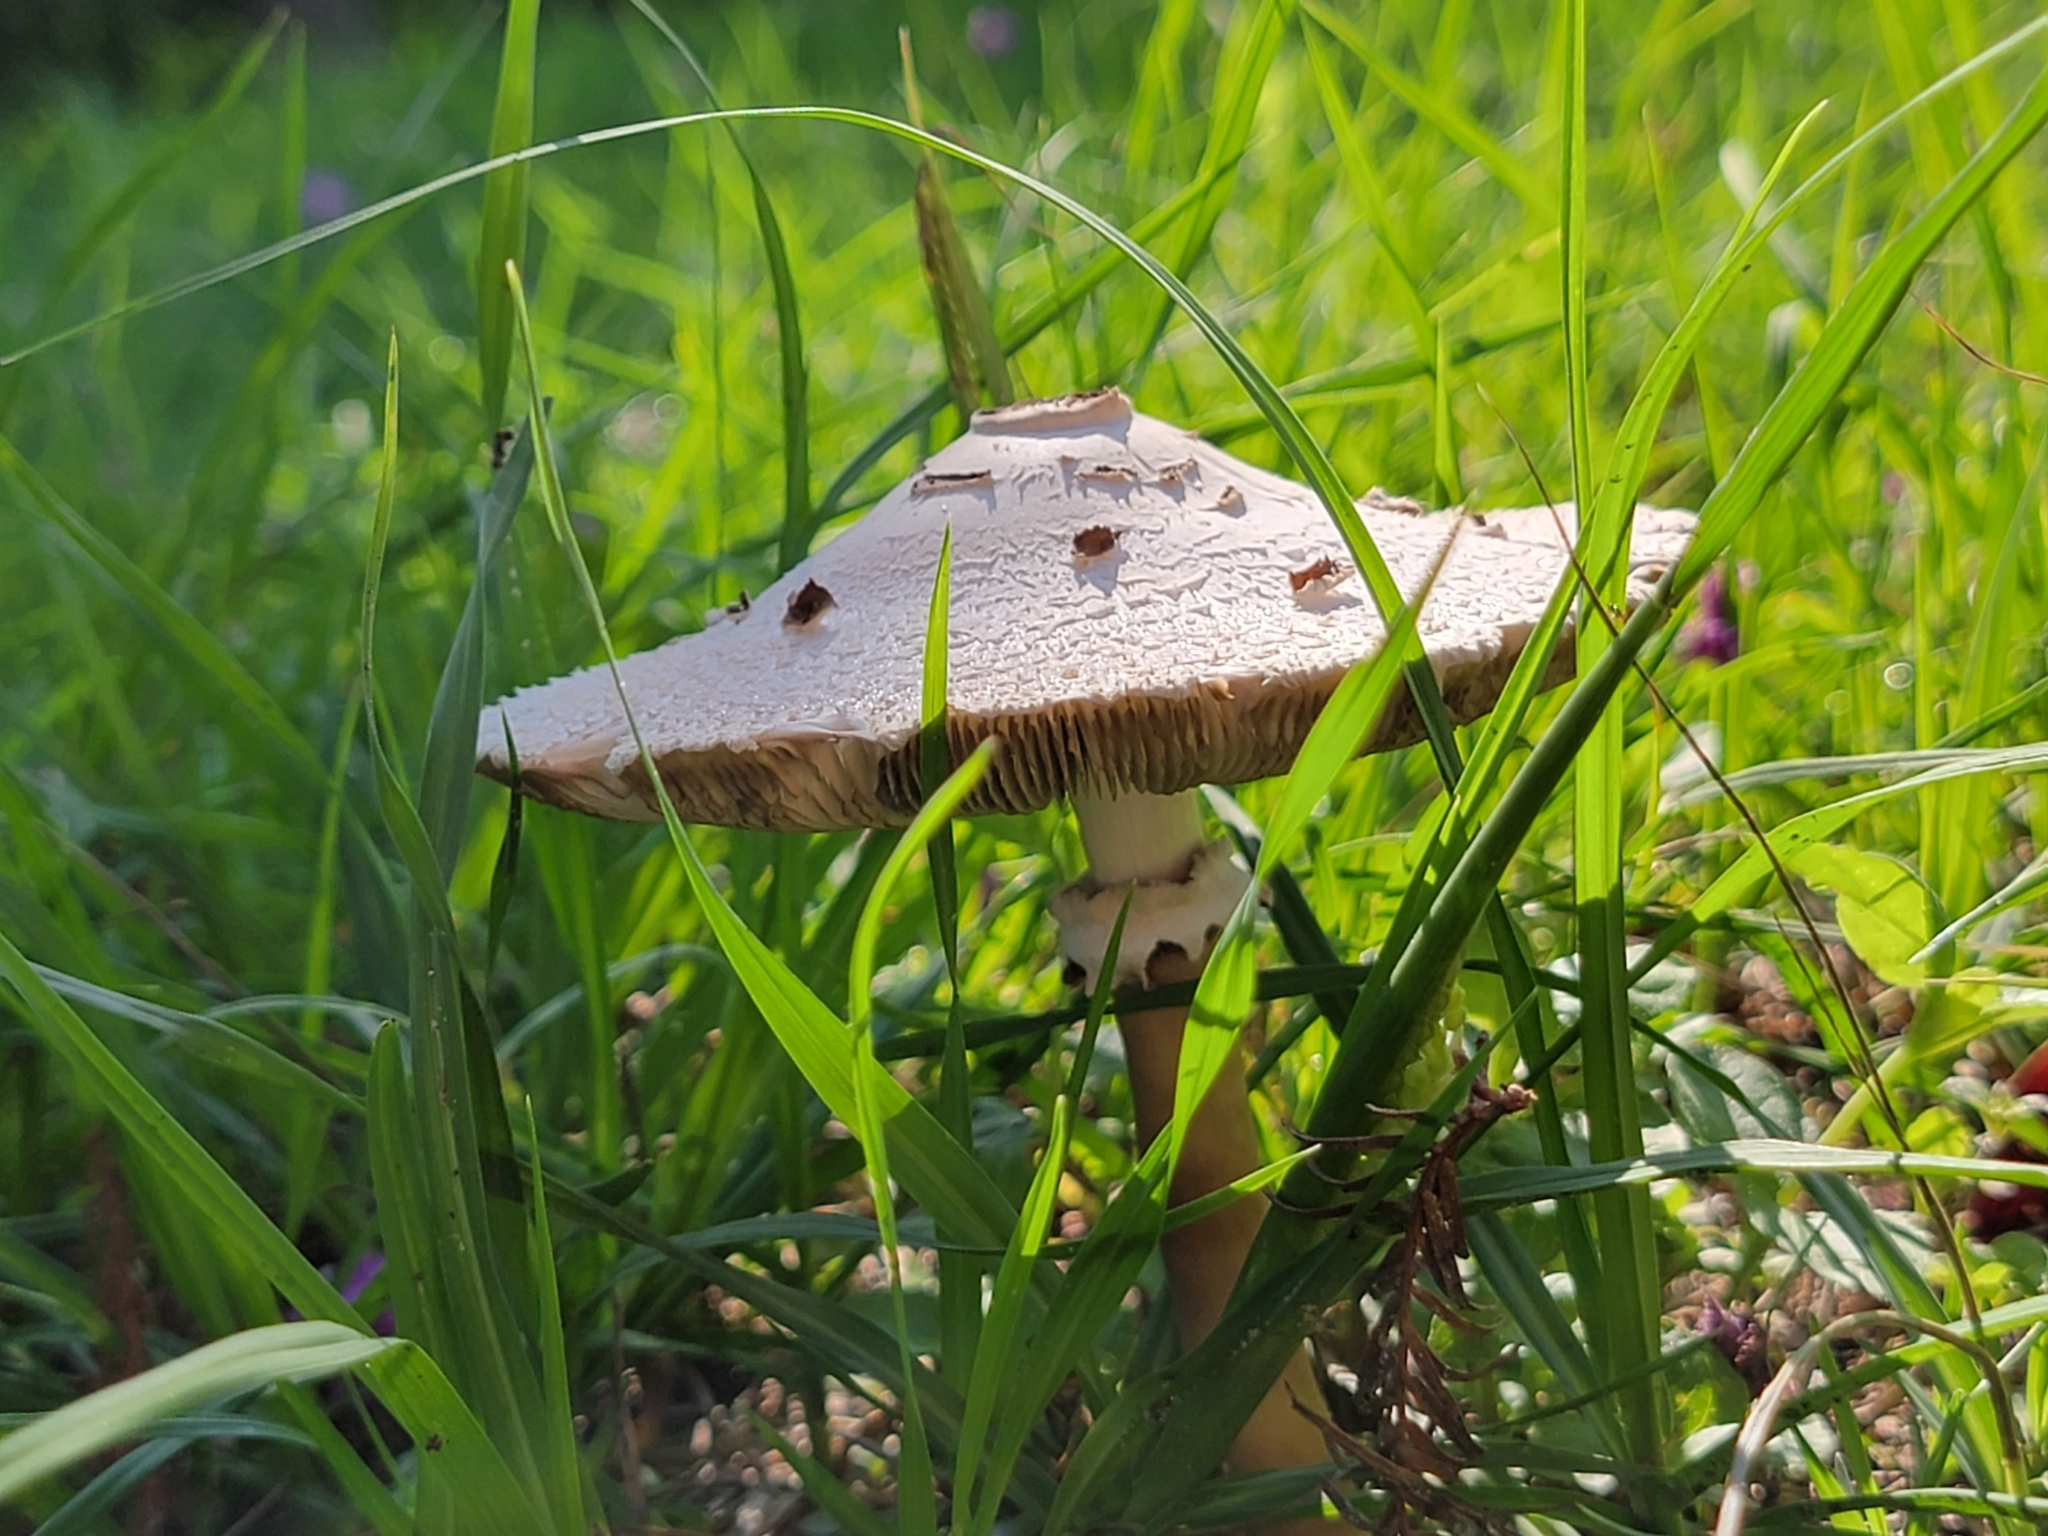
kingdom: Fungi
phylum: Basidiomycota
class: Agaricomycetes
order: Agaricales
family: Agaricaceae
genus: Chlorophyllum
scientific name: Chlorophyllum molybdites
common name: False parasol
